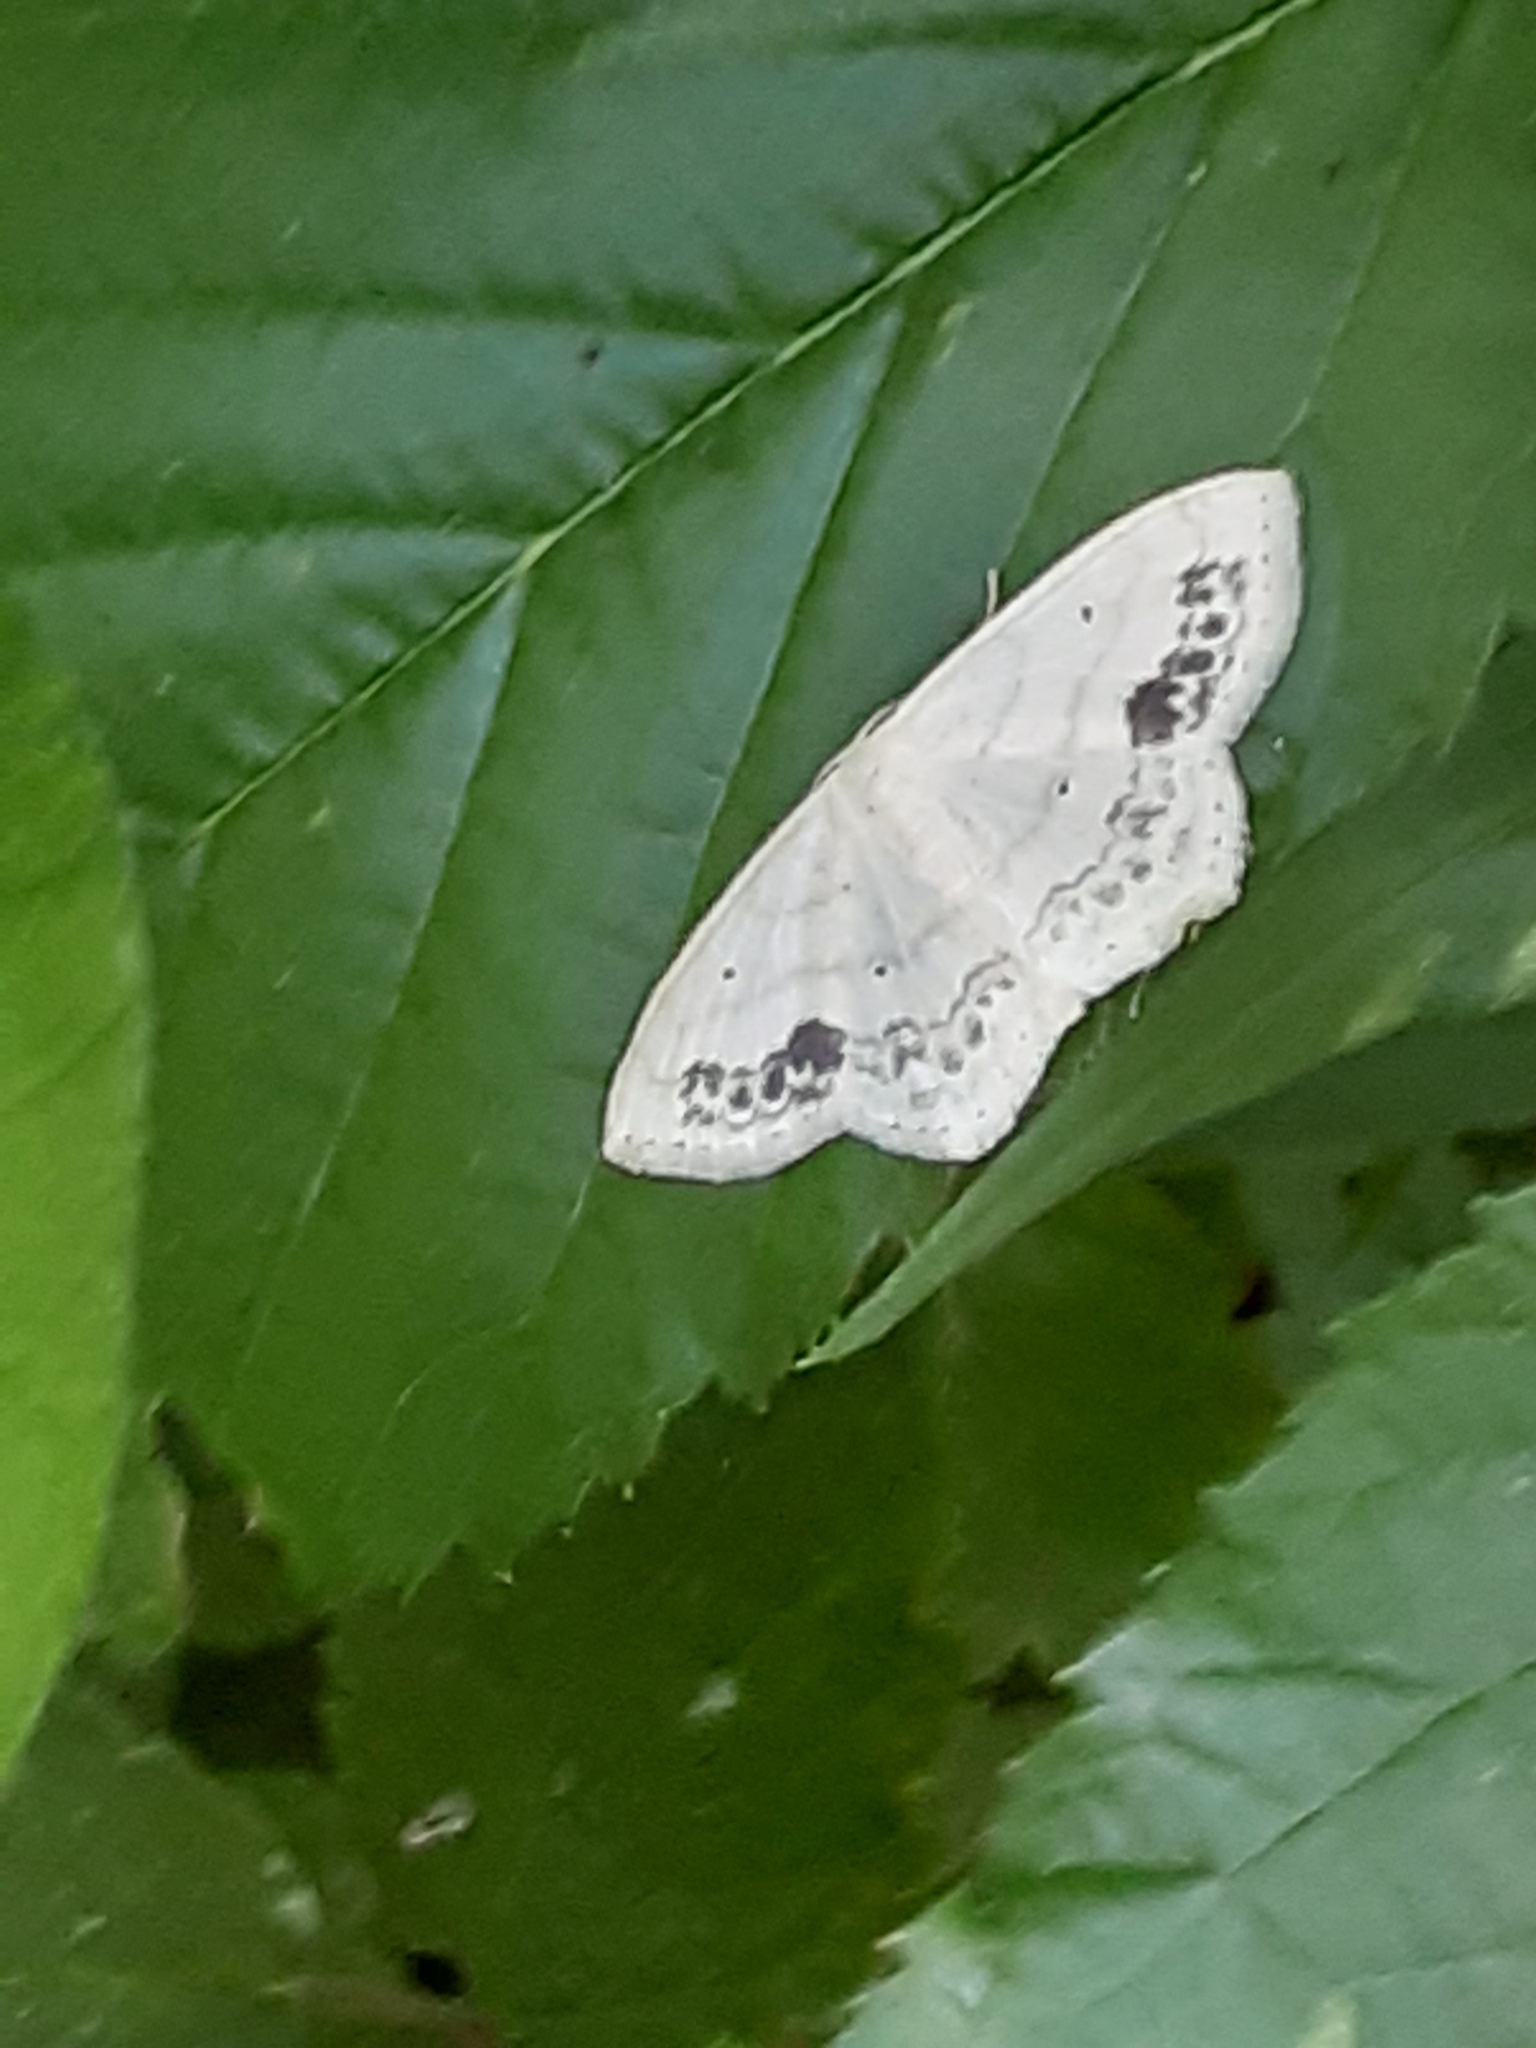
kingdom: Animalia
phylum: Arthropoda
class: Insecta
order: Lepidoptera
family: Geometridae
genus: Scopula
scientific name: Scopula limboundata
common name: Large lace border
